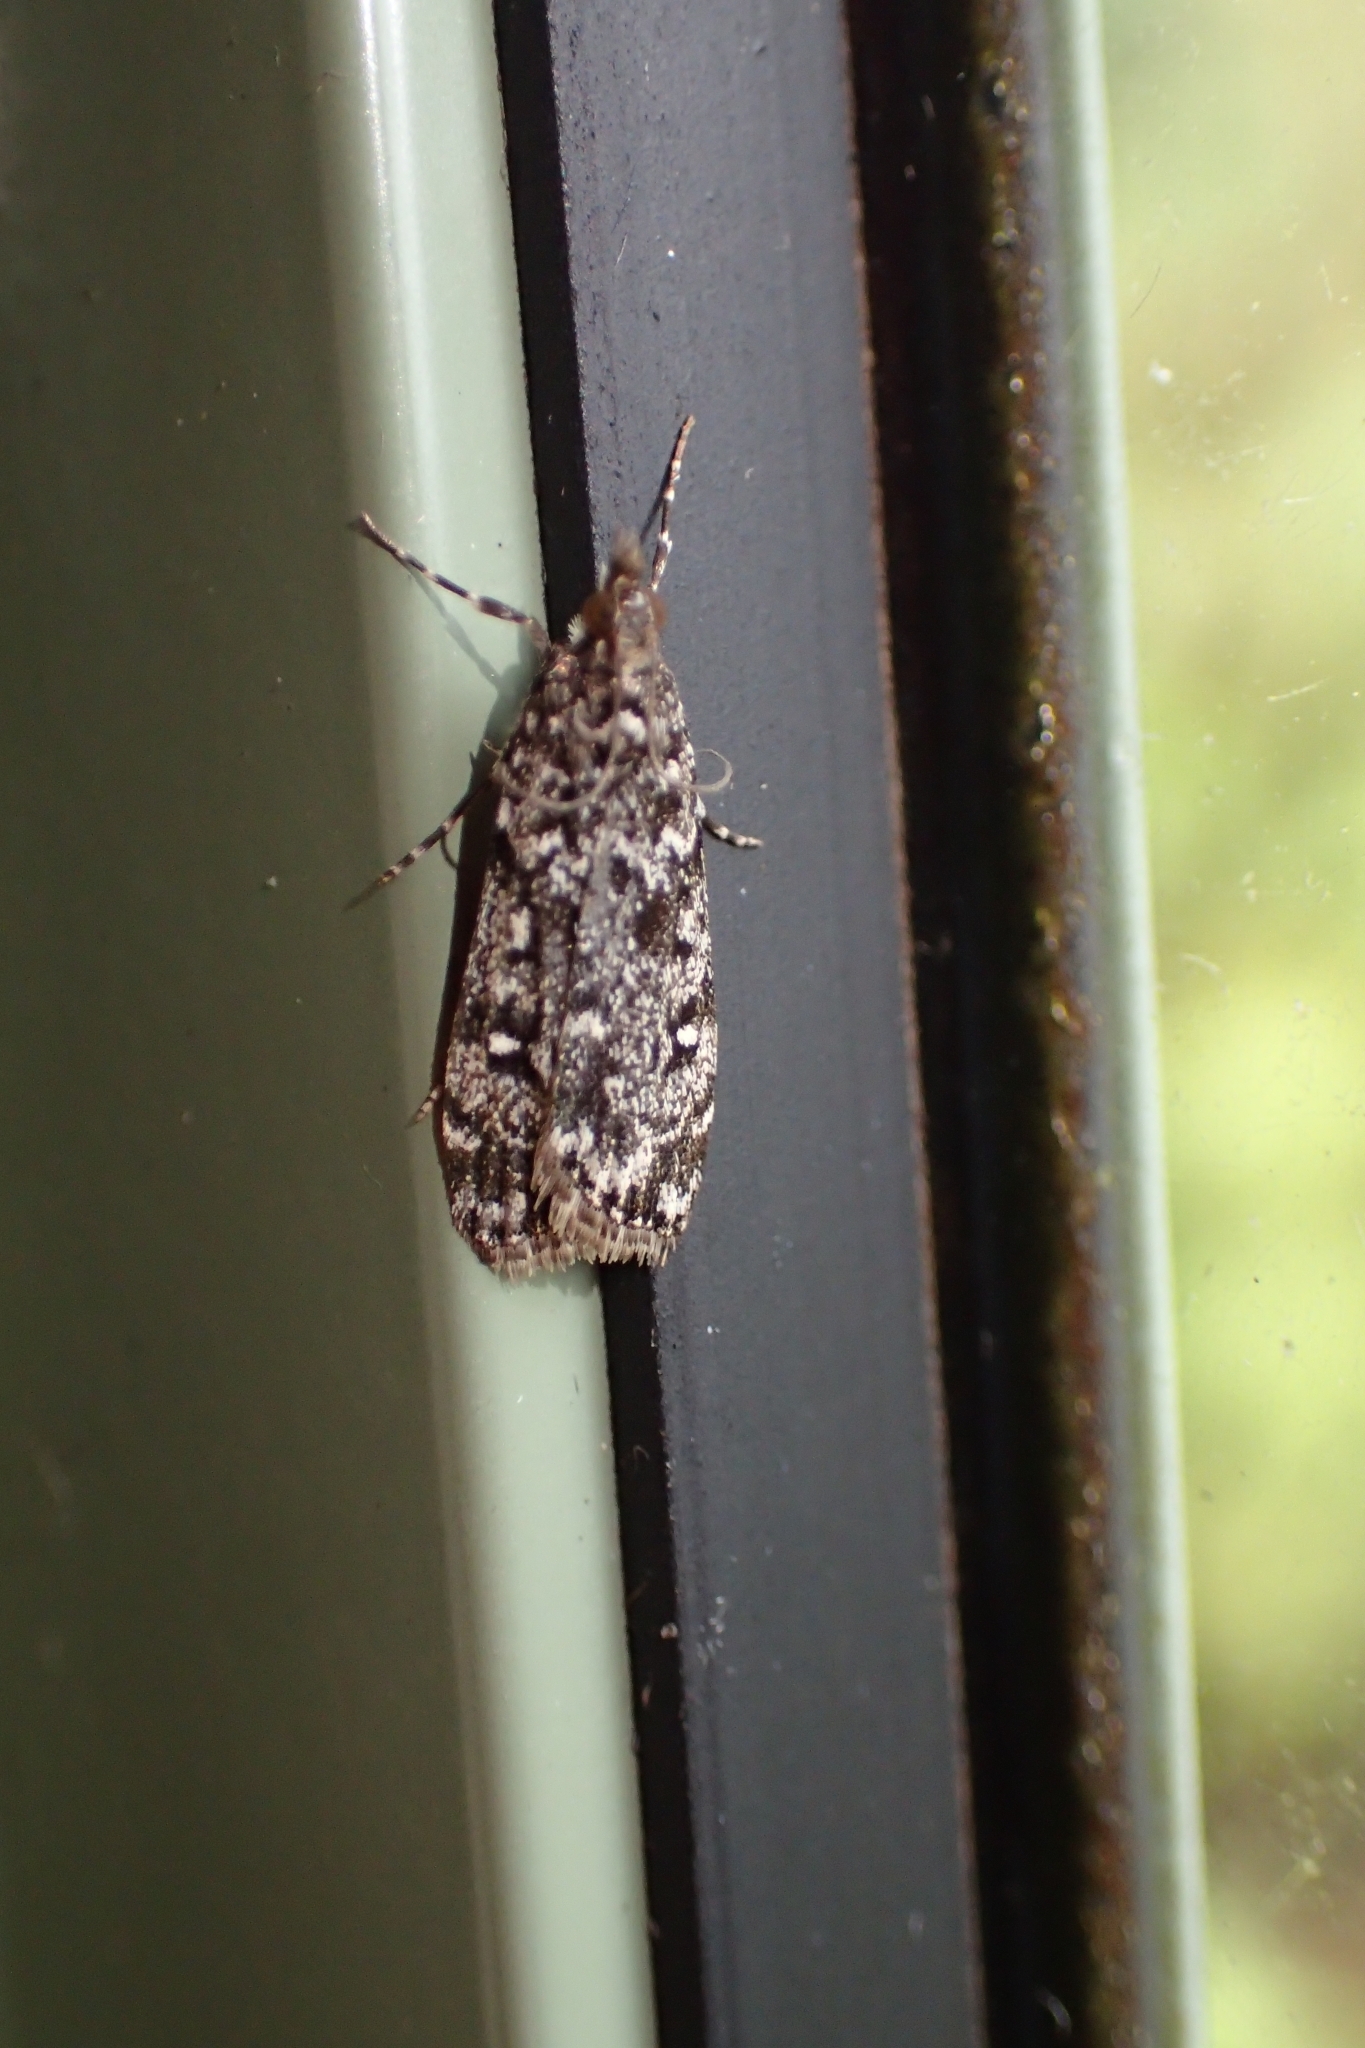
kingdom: Animalia
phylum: Arthropoda
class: Insecta
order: Lepidoptera
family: Crambidae
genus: Eudonia
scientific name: Eudonia philerga
